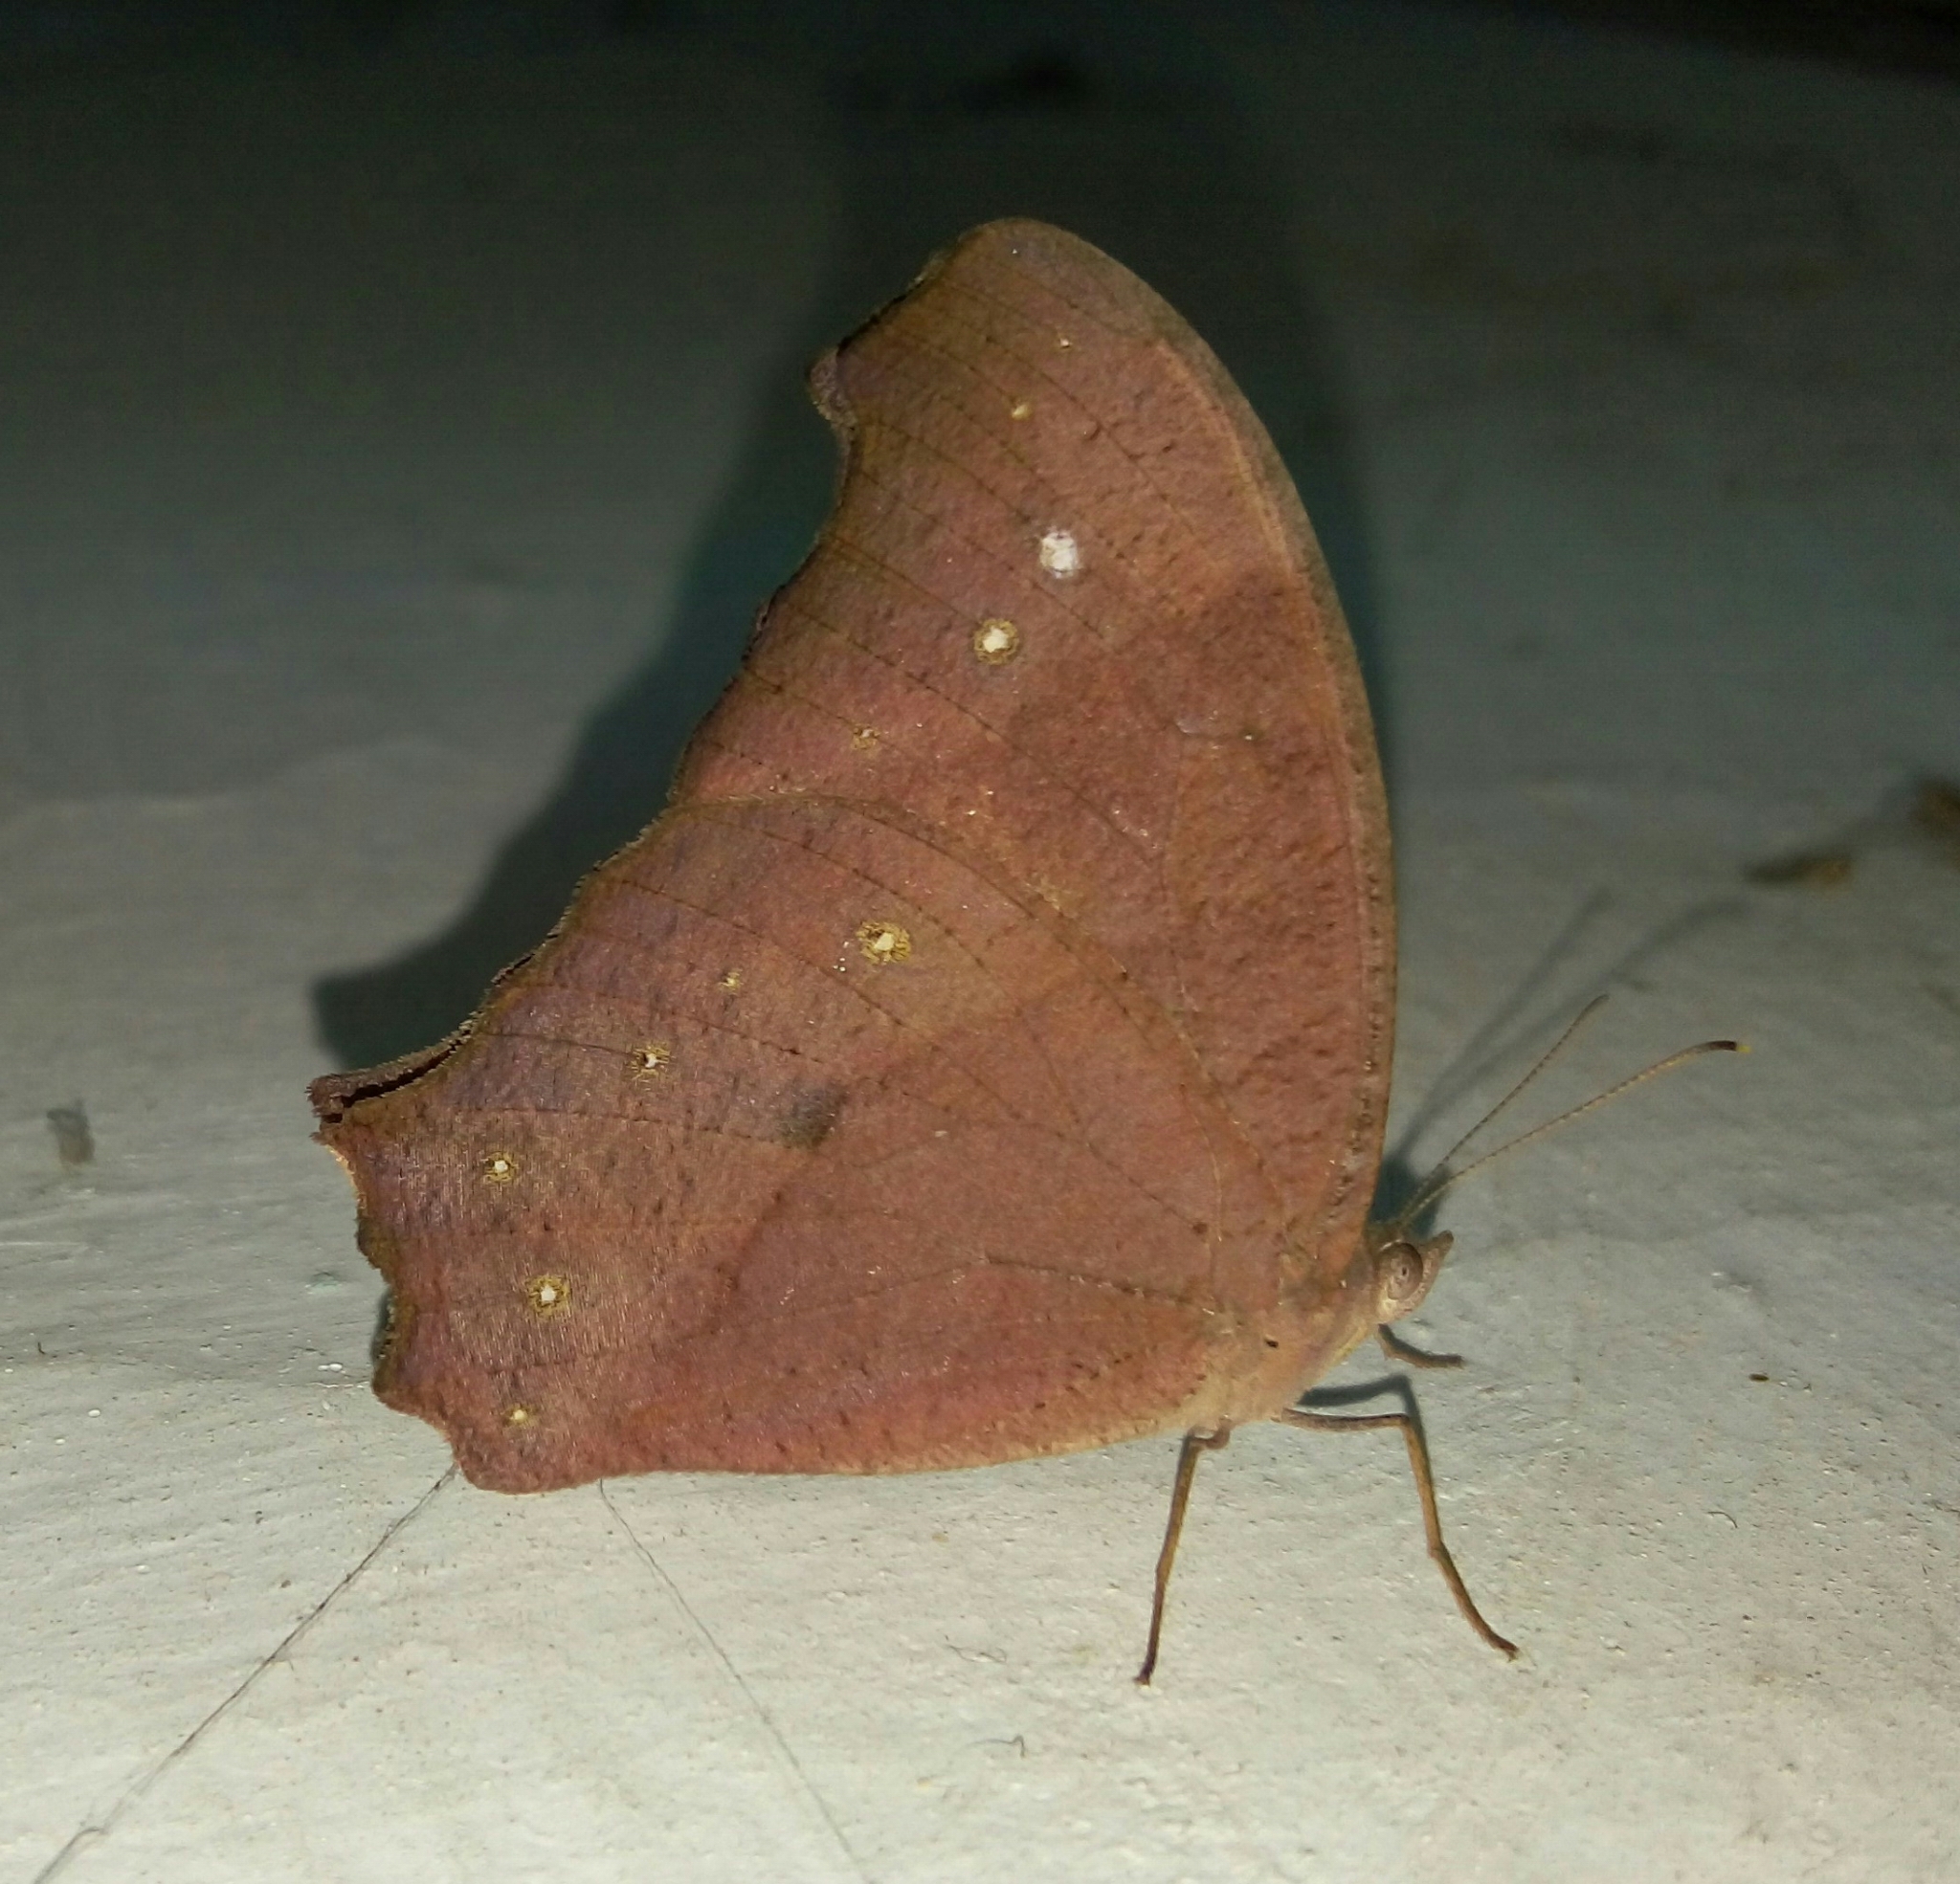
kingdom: Animalia
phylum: Arthropoda
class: Insecta
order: Lepidoptera
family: Nymphalidae
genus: Melanitis
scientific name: Melanitis leda
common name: Twilight brown
